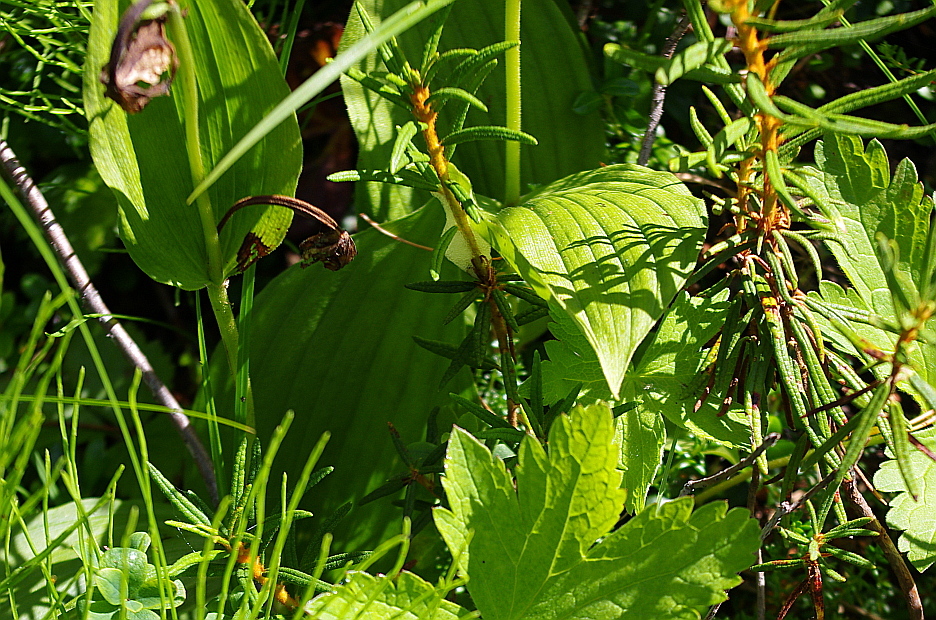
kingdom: Plantae
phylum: Tracheophyta
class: Liliopsida
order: Asparagales
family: Orchidaceae
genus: Cypripedium
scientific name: Cypripedium calceolus
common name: Lady's-slipper
